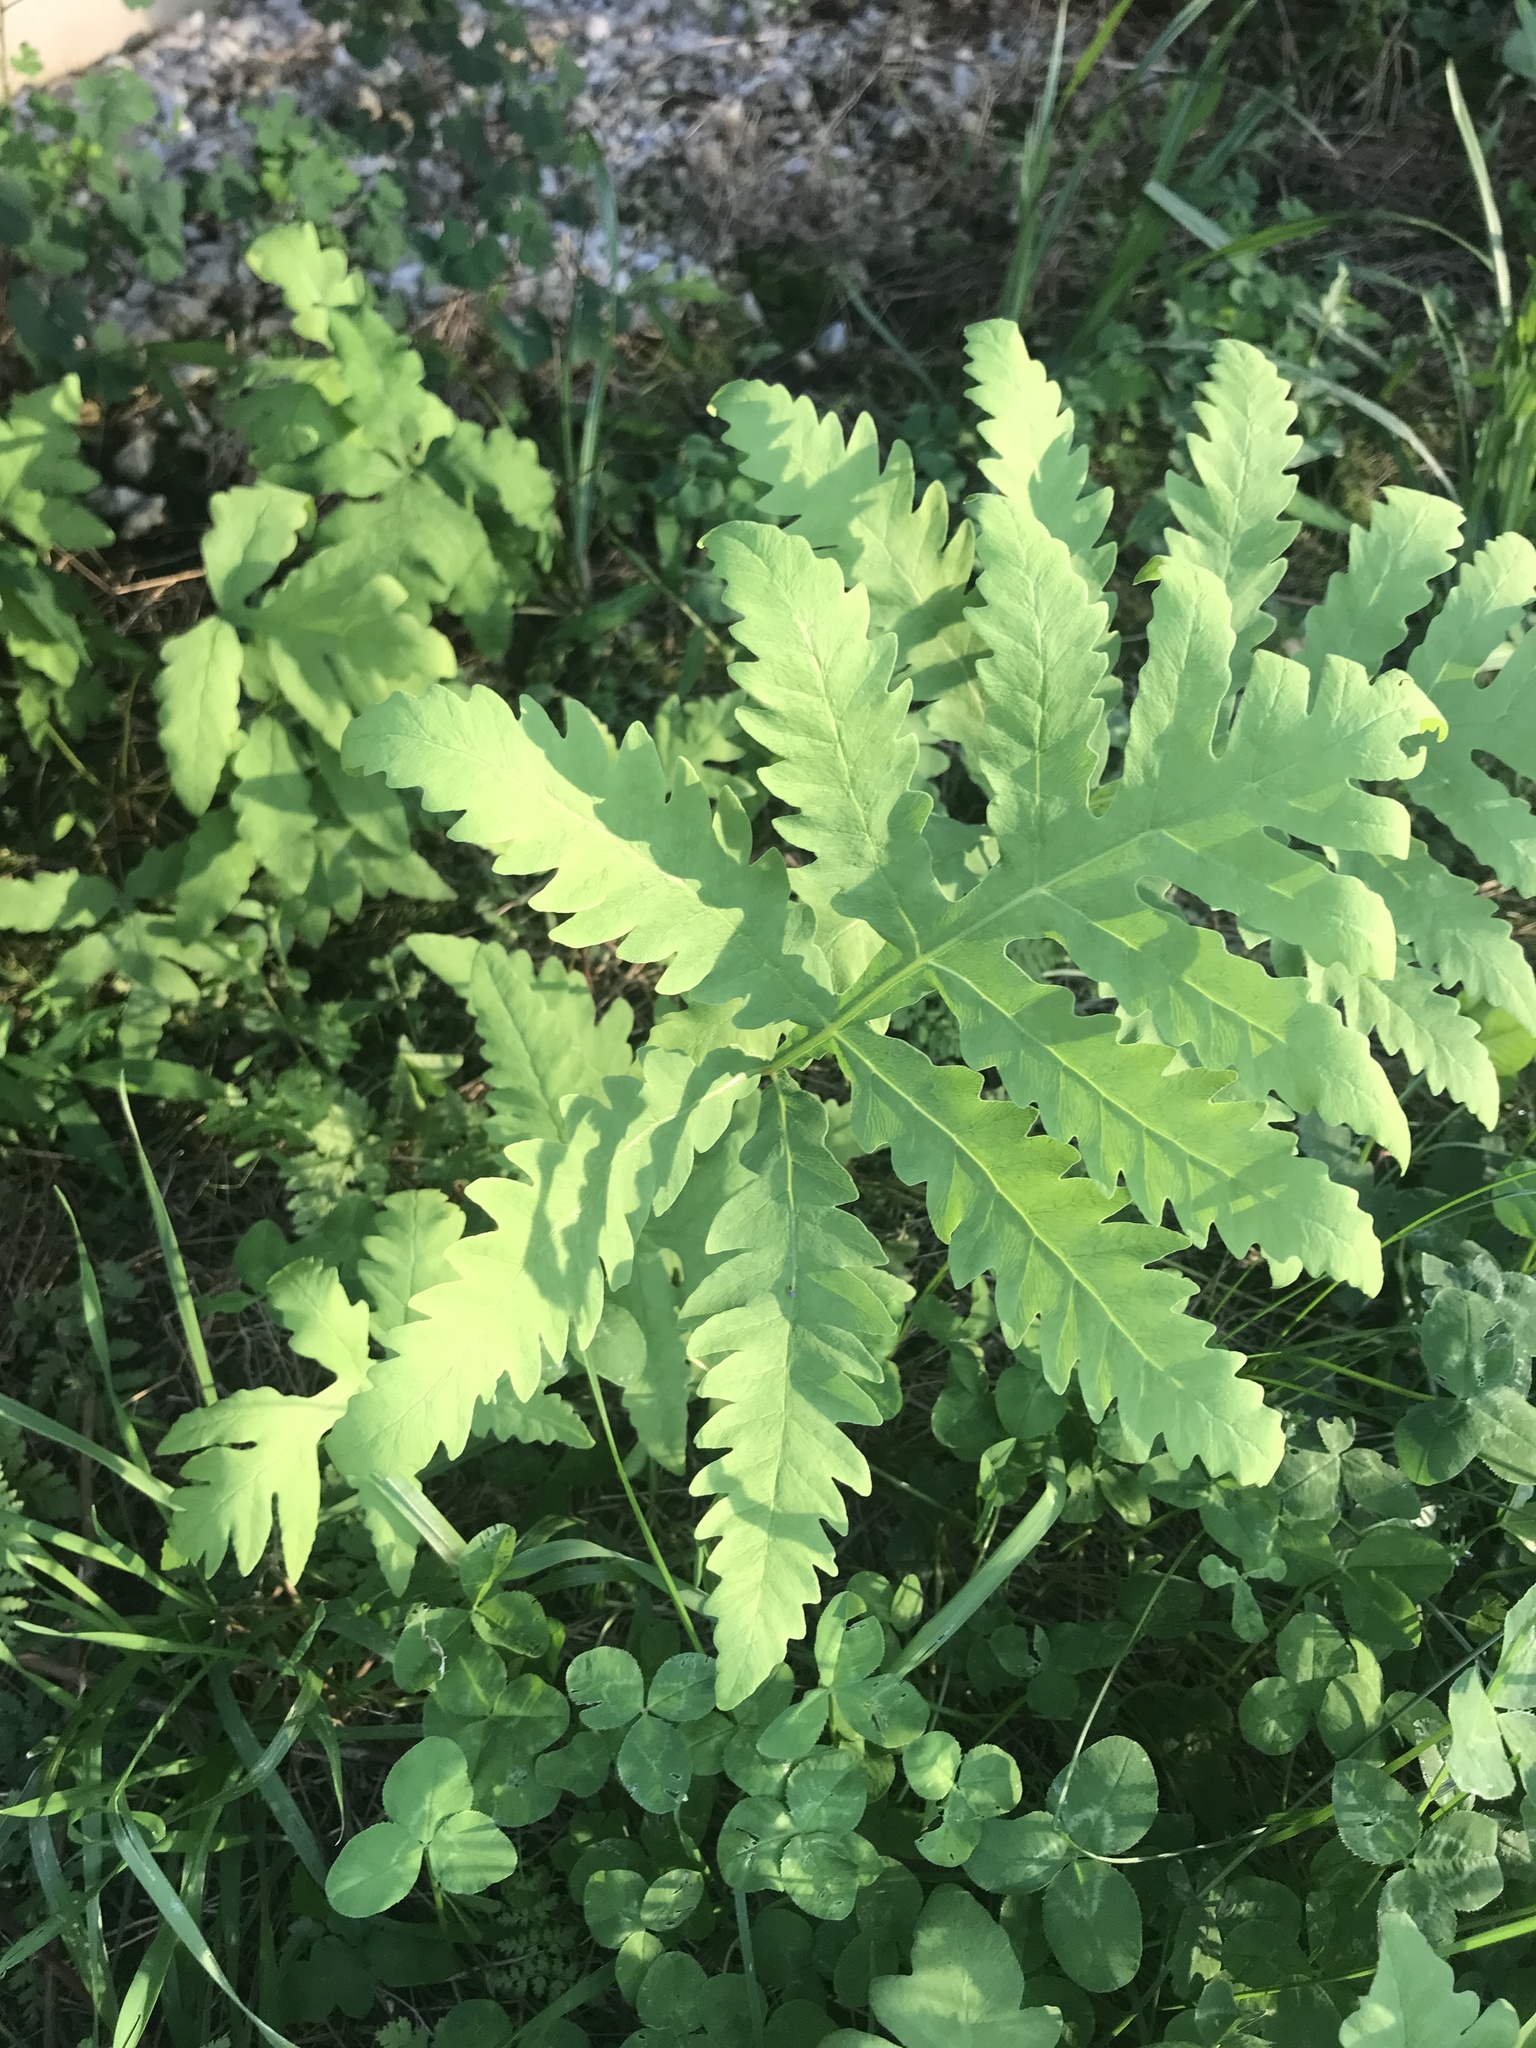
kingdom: Plantae
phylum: Tracheophyta
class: Polypodiopsida
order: Polypodiales
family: Onocleaceae
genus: Onoclea
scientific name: Onoclea sensibilis
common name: Sensitive fern
